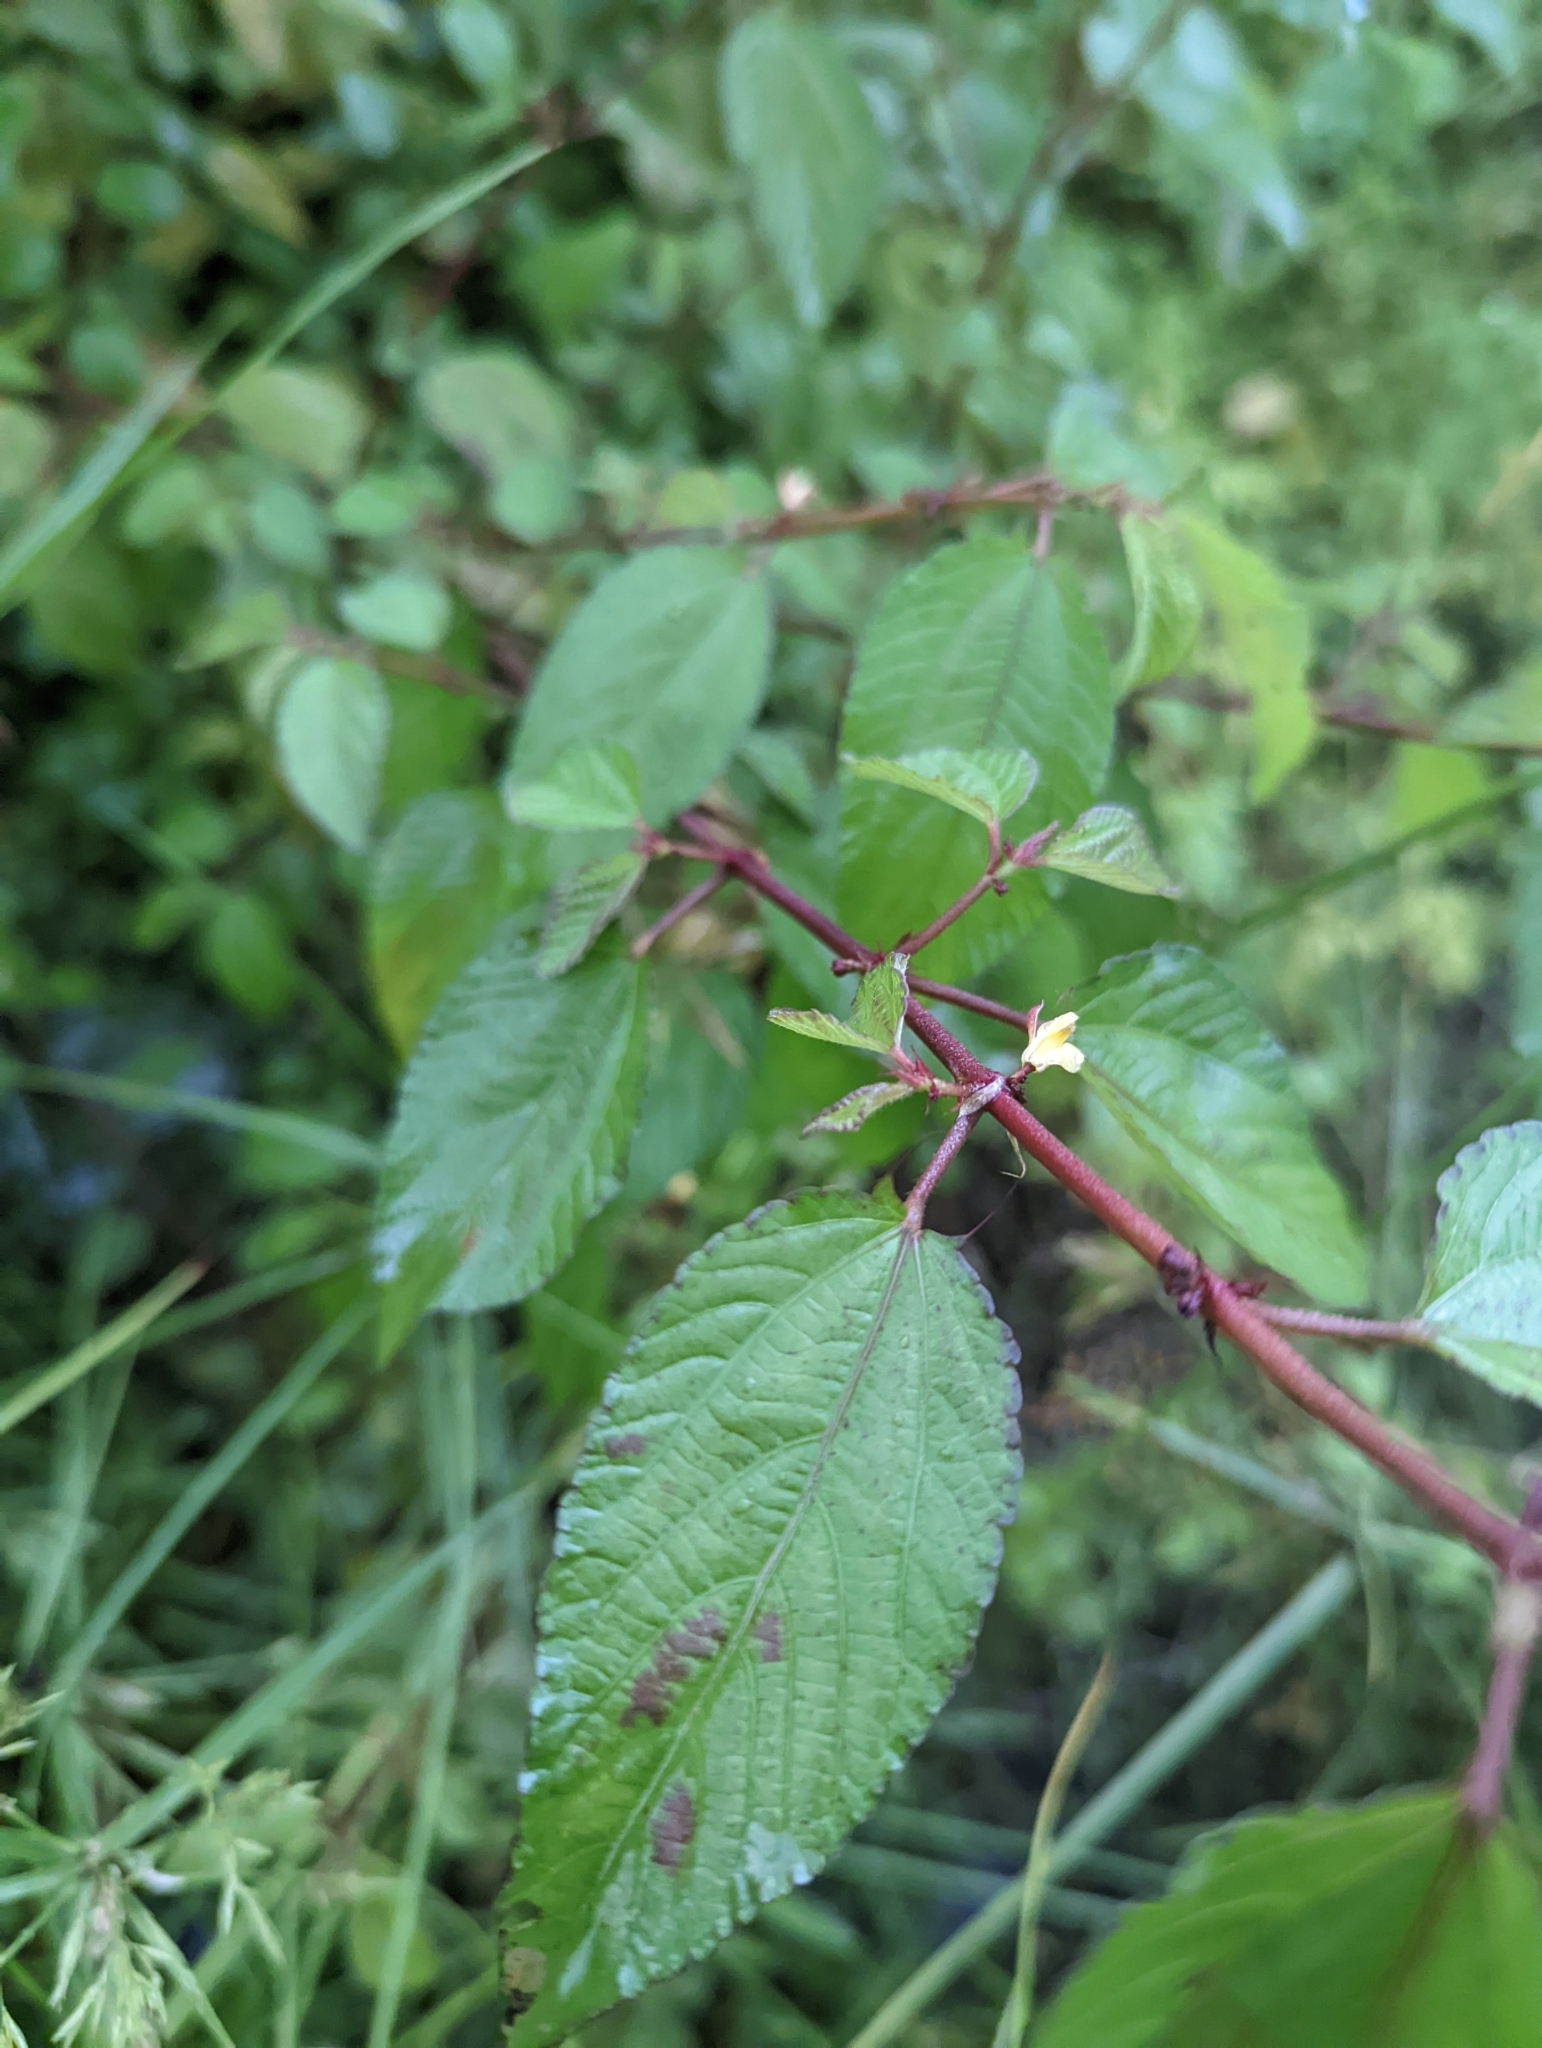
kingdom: Plantae
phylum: Tracheophyta
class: Magnoliopsida
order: Malvales
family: Malvaceae
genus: Corchorus
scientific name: Corchorus aestuans
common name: Jute
